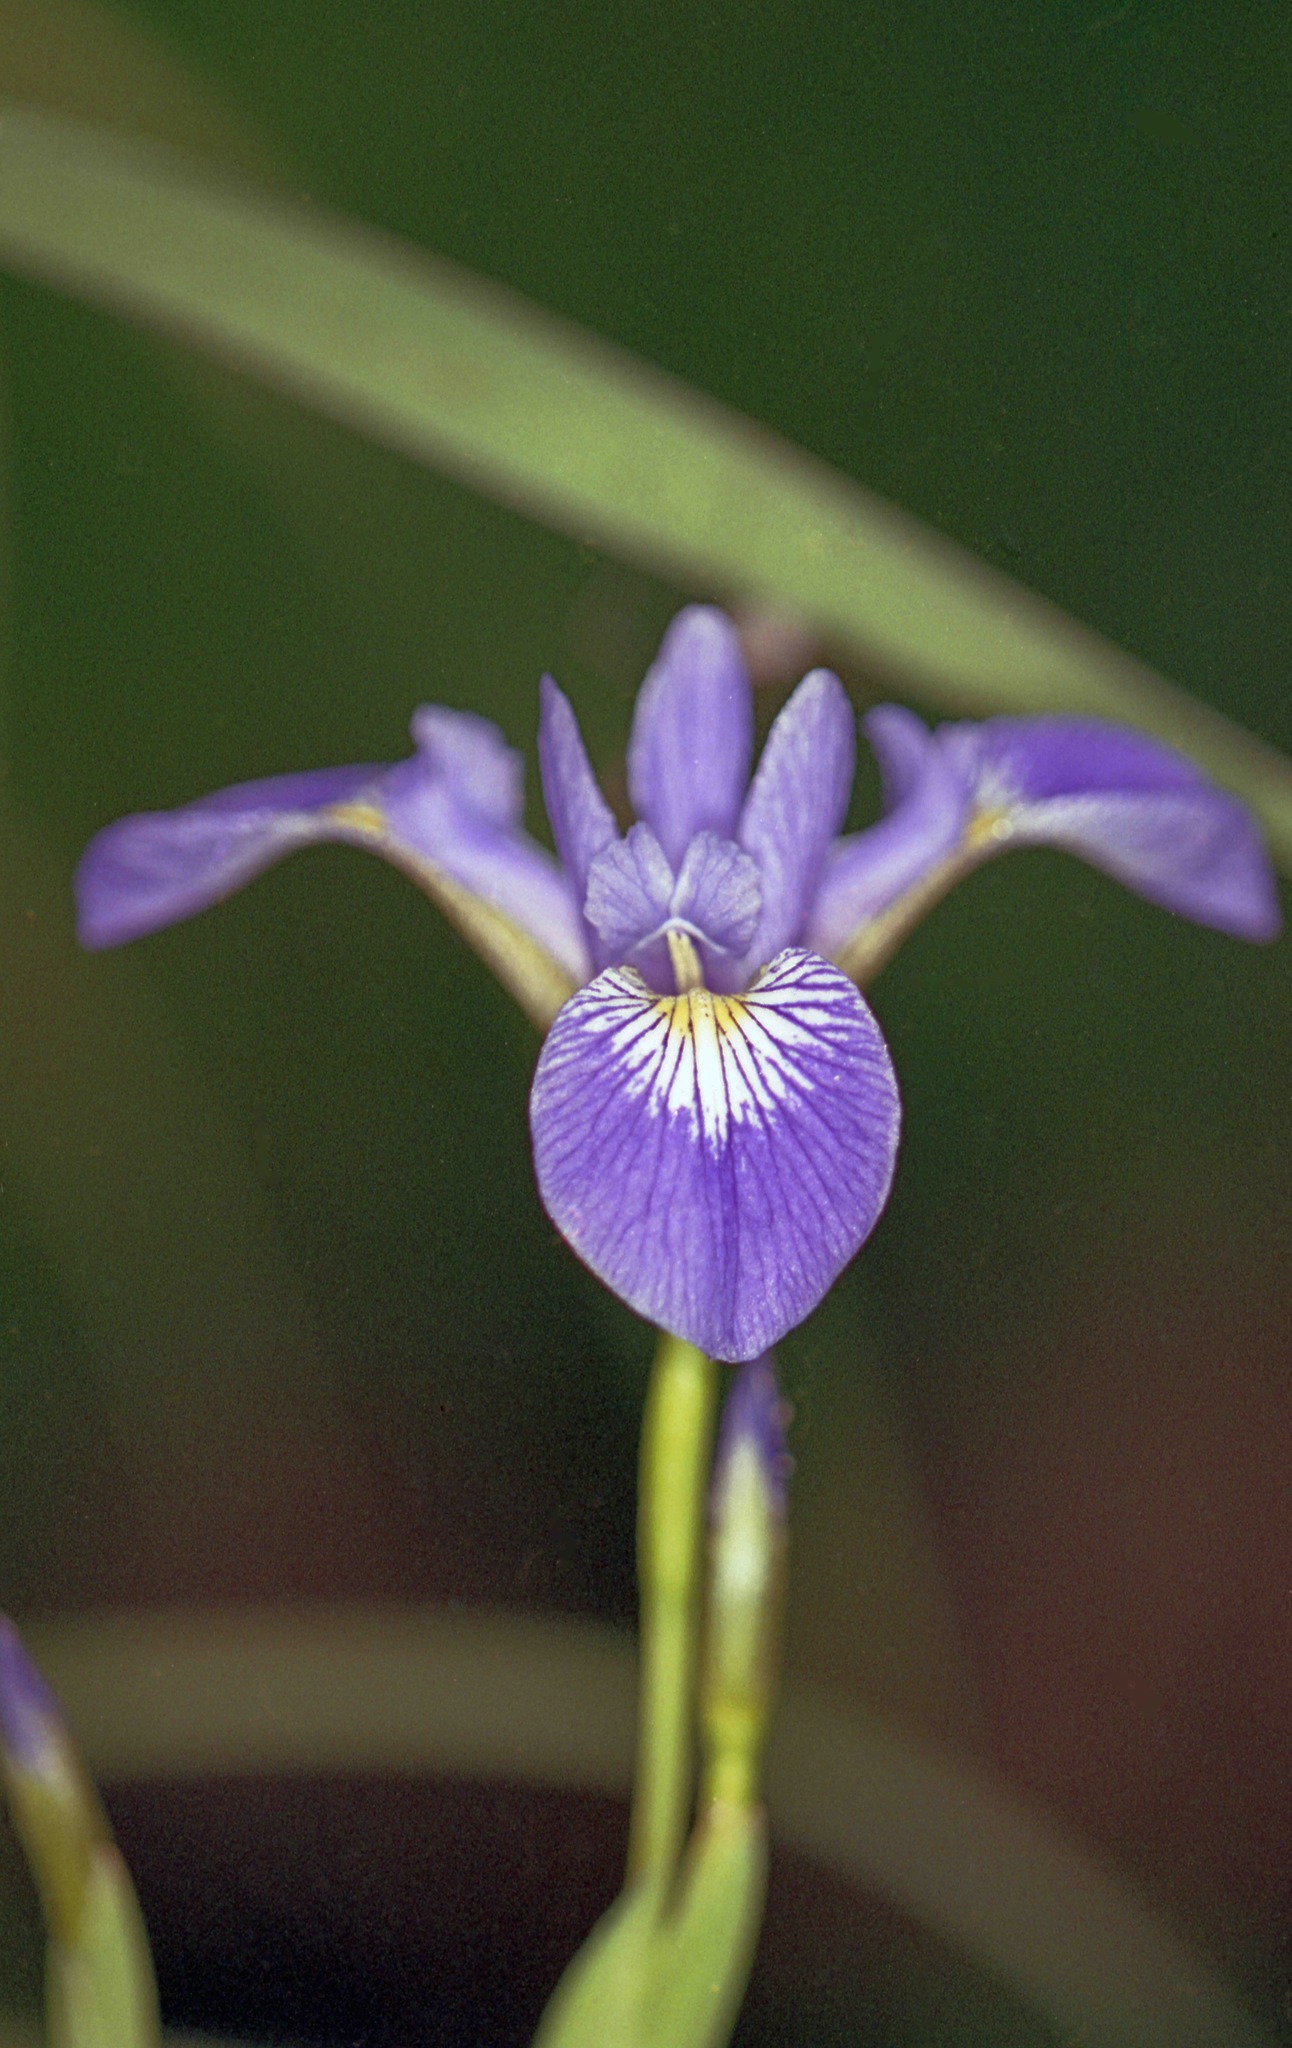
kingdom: Plantae
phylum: Tracheophyta
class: Liliopsida
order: Asparagales
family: Iridaceae
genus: Iris
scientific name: Iris versicolor
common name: Purple iris
